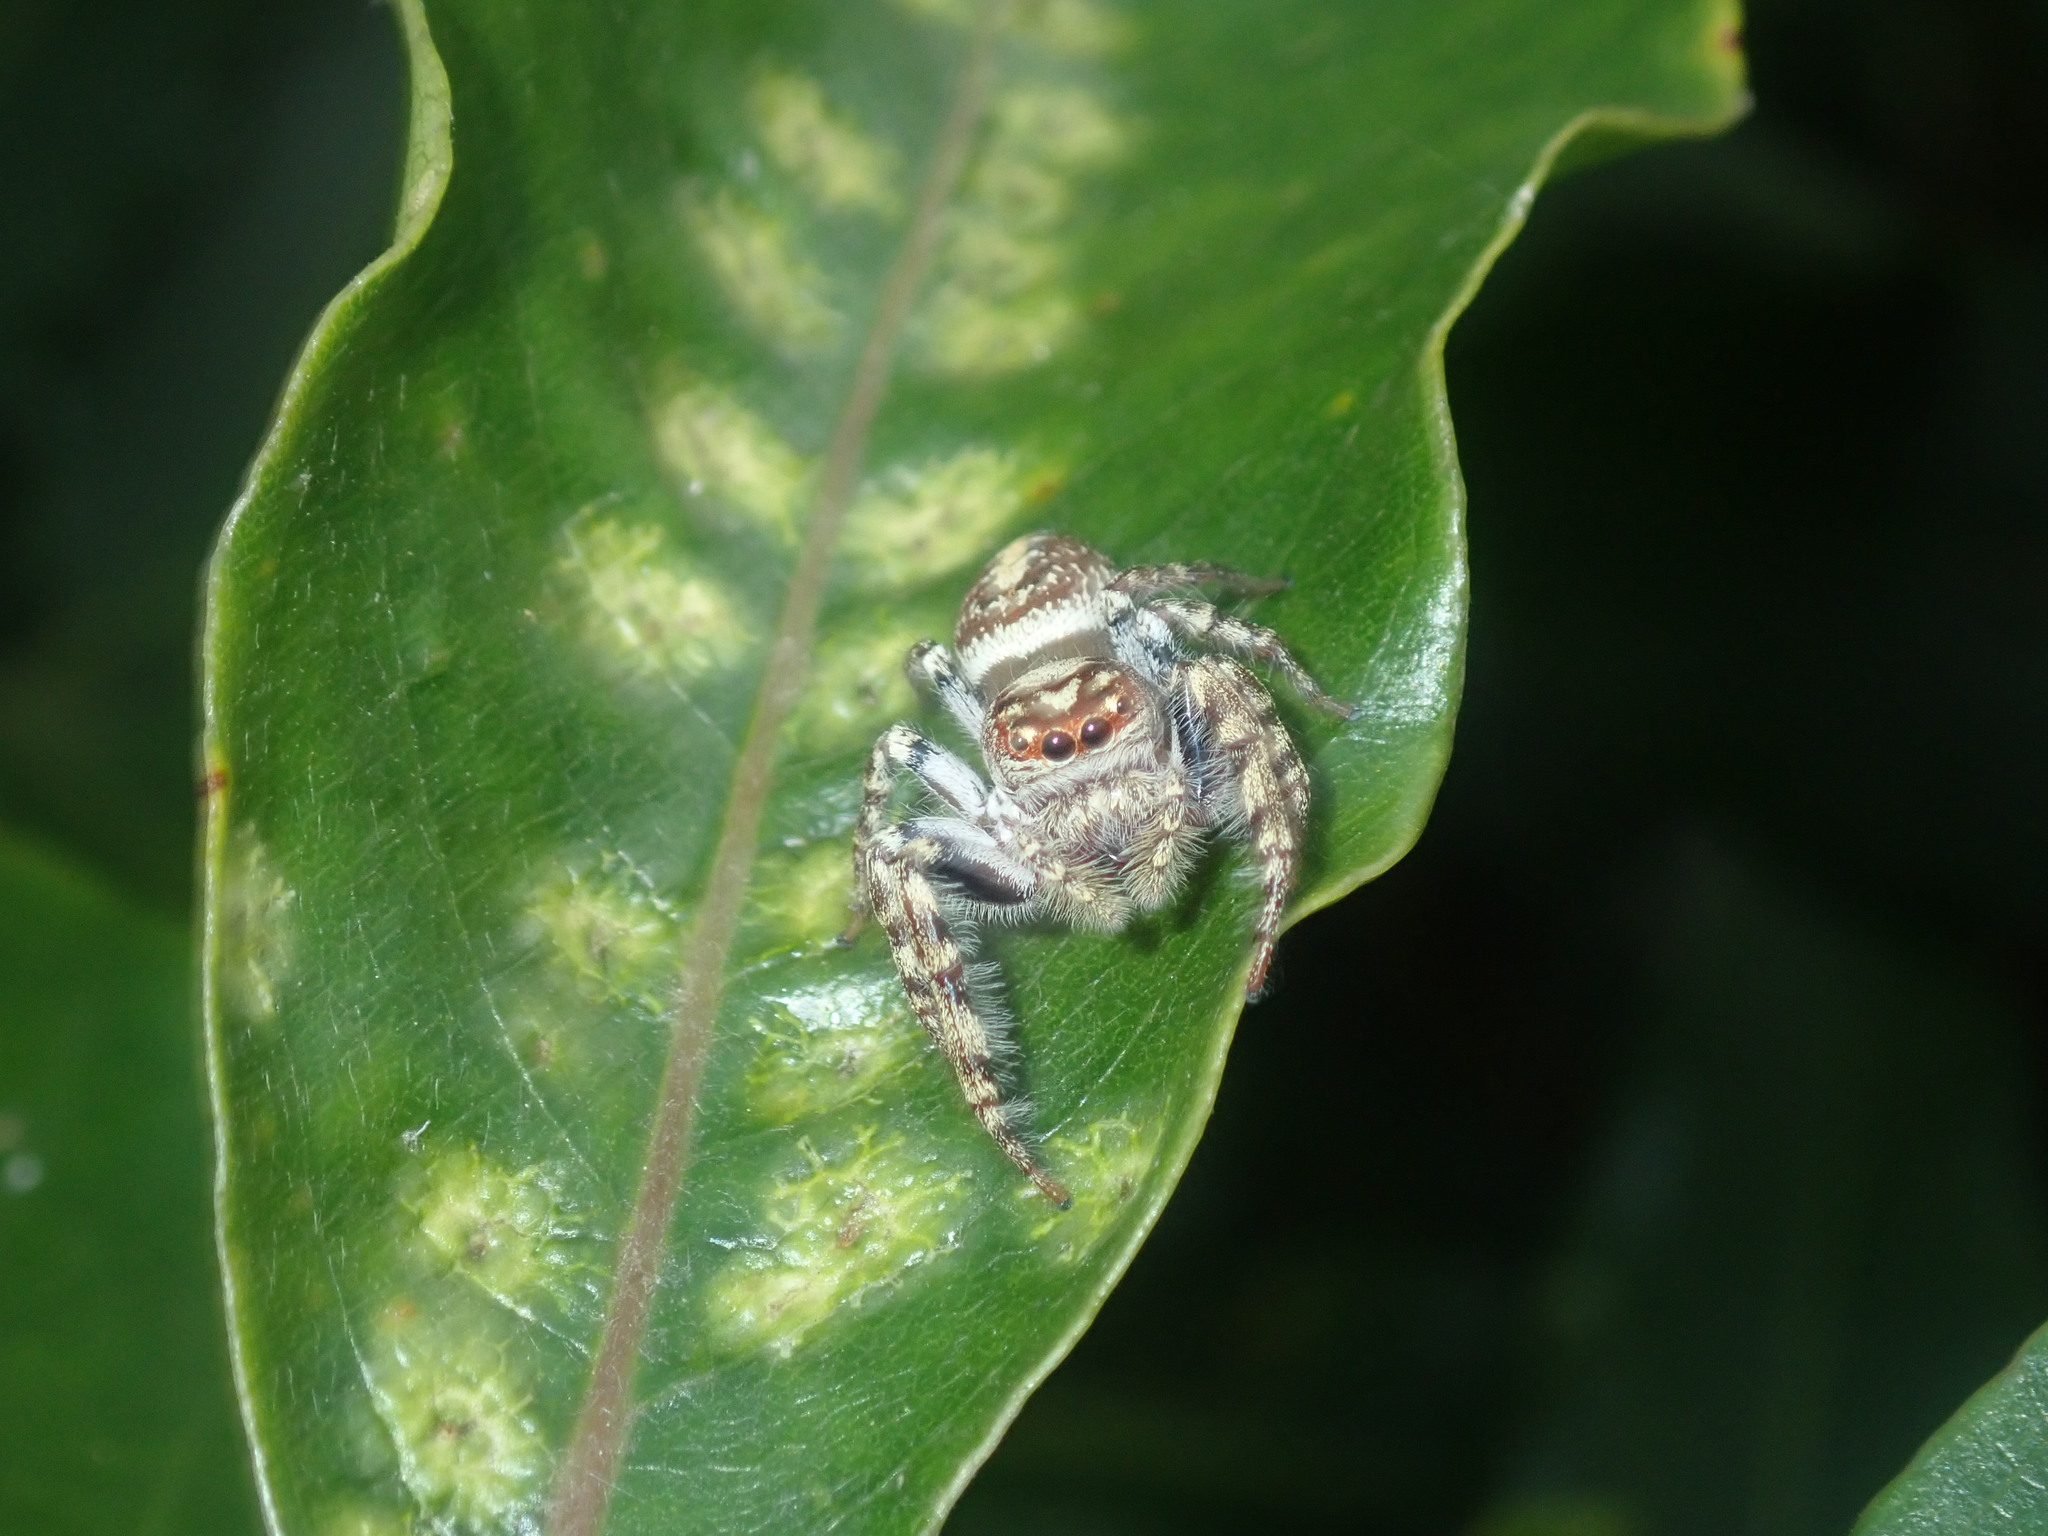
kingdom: Animalia
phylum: Arthropoda
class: Arachnida
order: Araneae
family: Salticidae
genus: Opisthoncus
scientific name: Opisthoncus quadratarius
